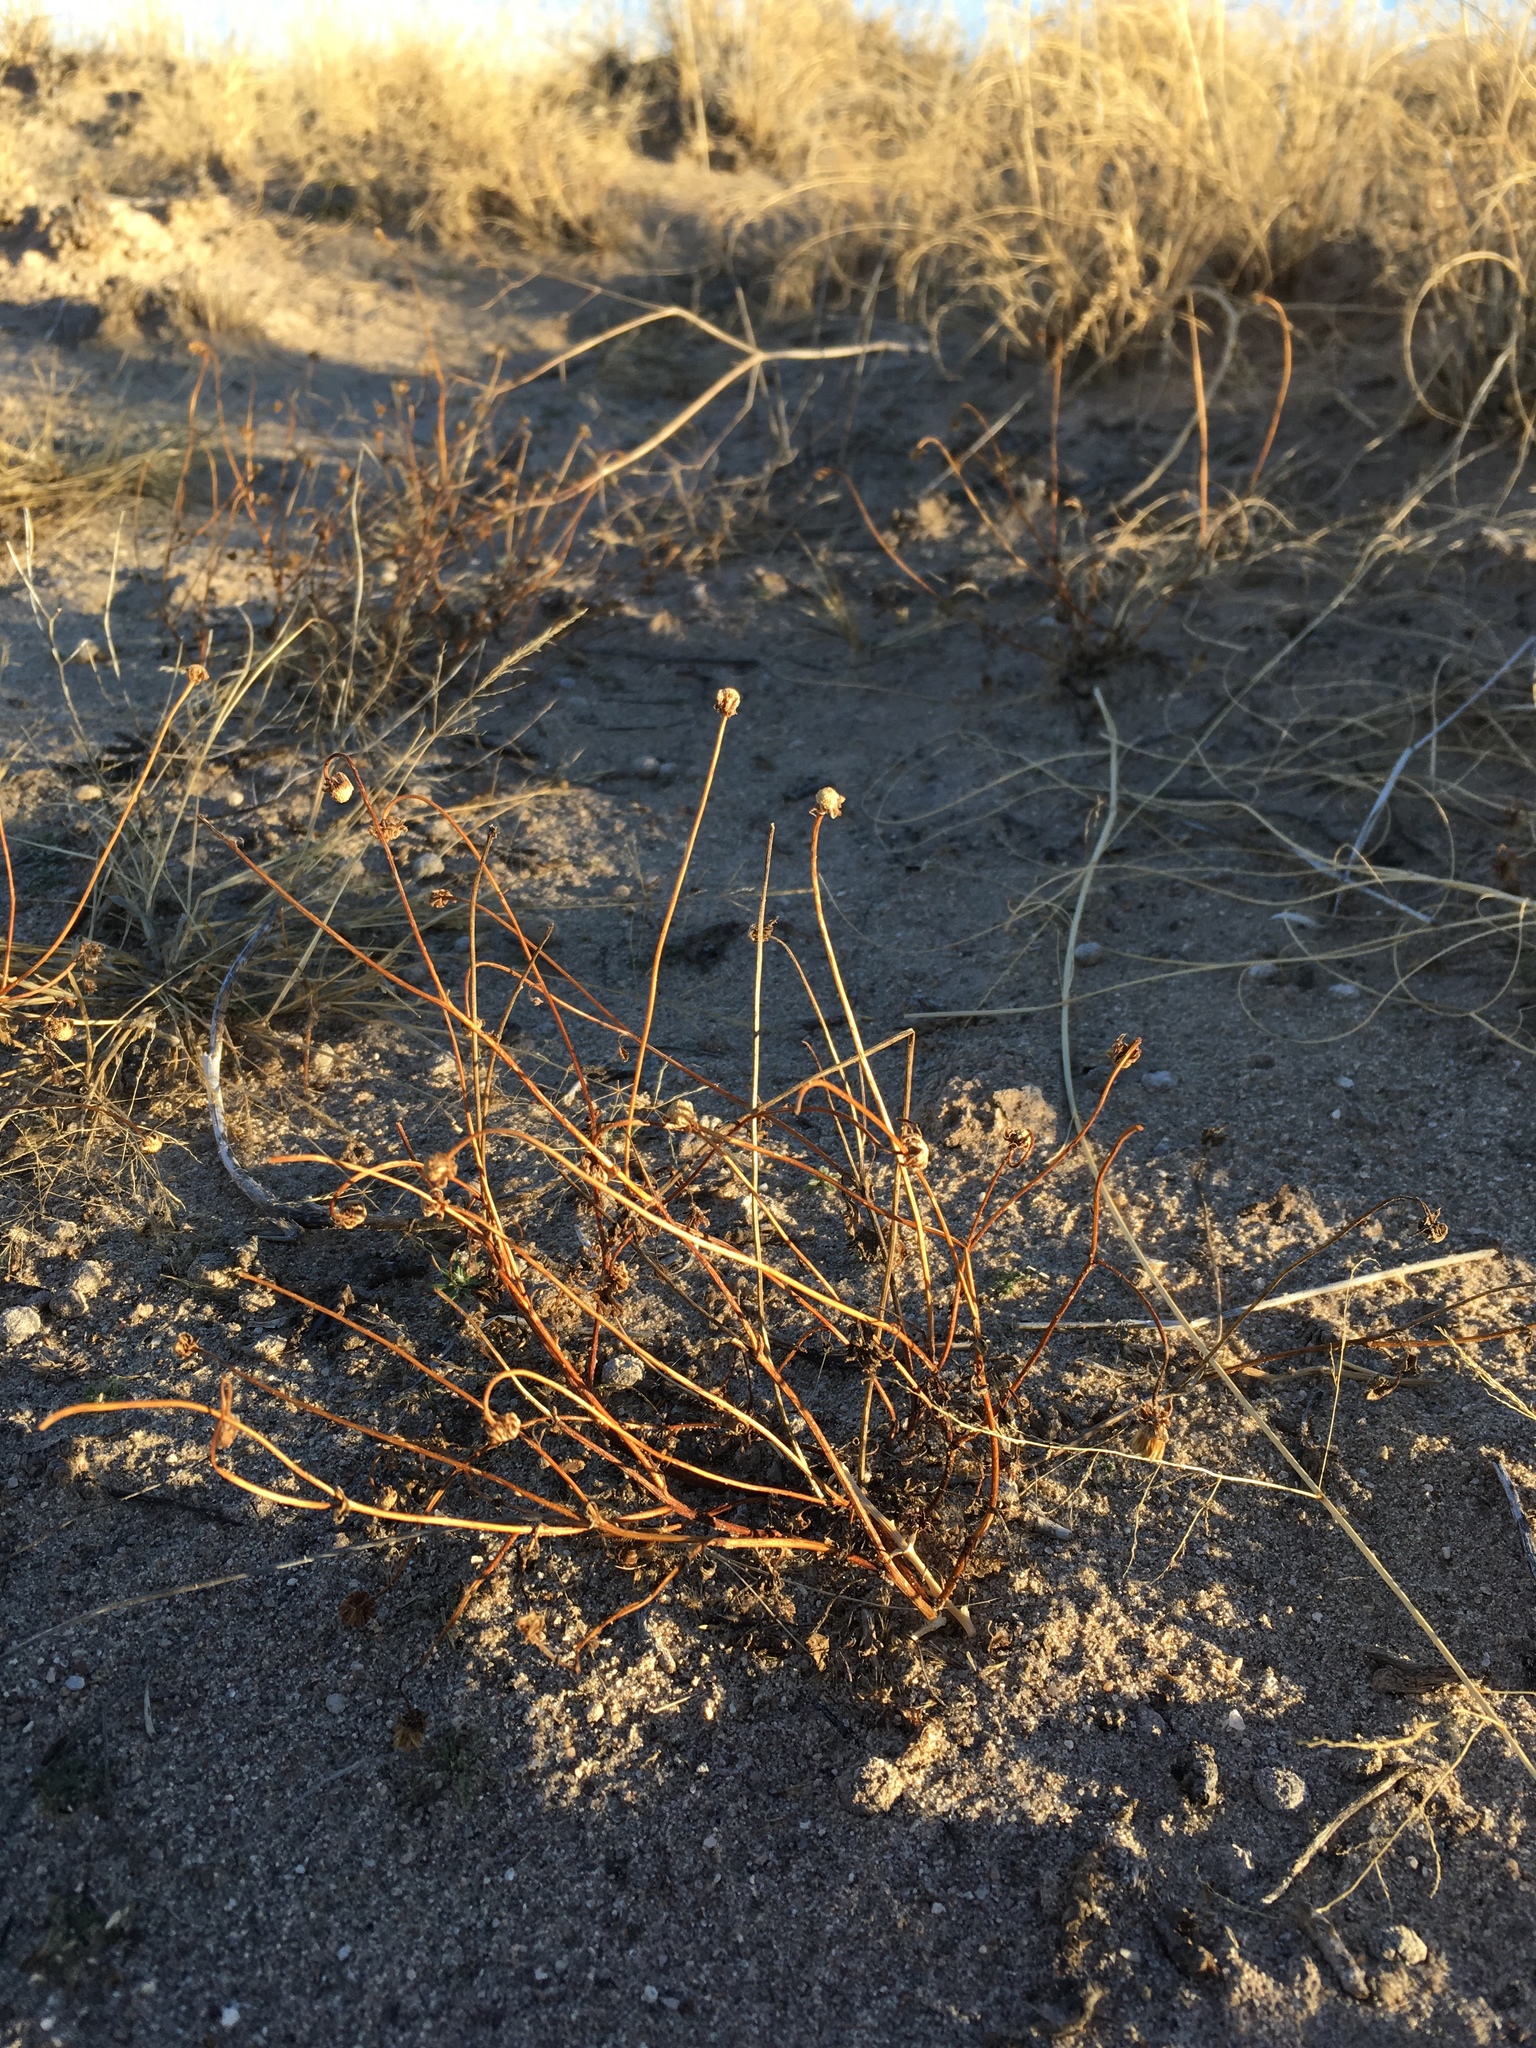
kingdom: Plantae
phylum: Tracheophyta
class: Magnoliopsida
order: Asterales
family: Asteraceae
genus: Bartlettia
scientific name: Bartlettia scaposa
